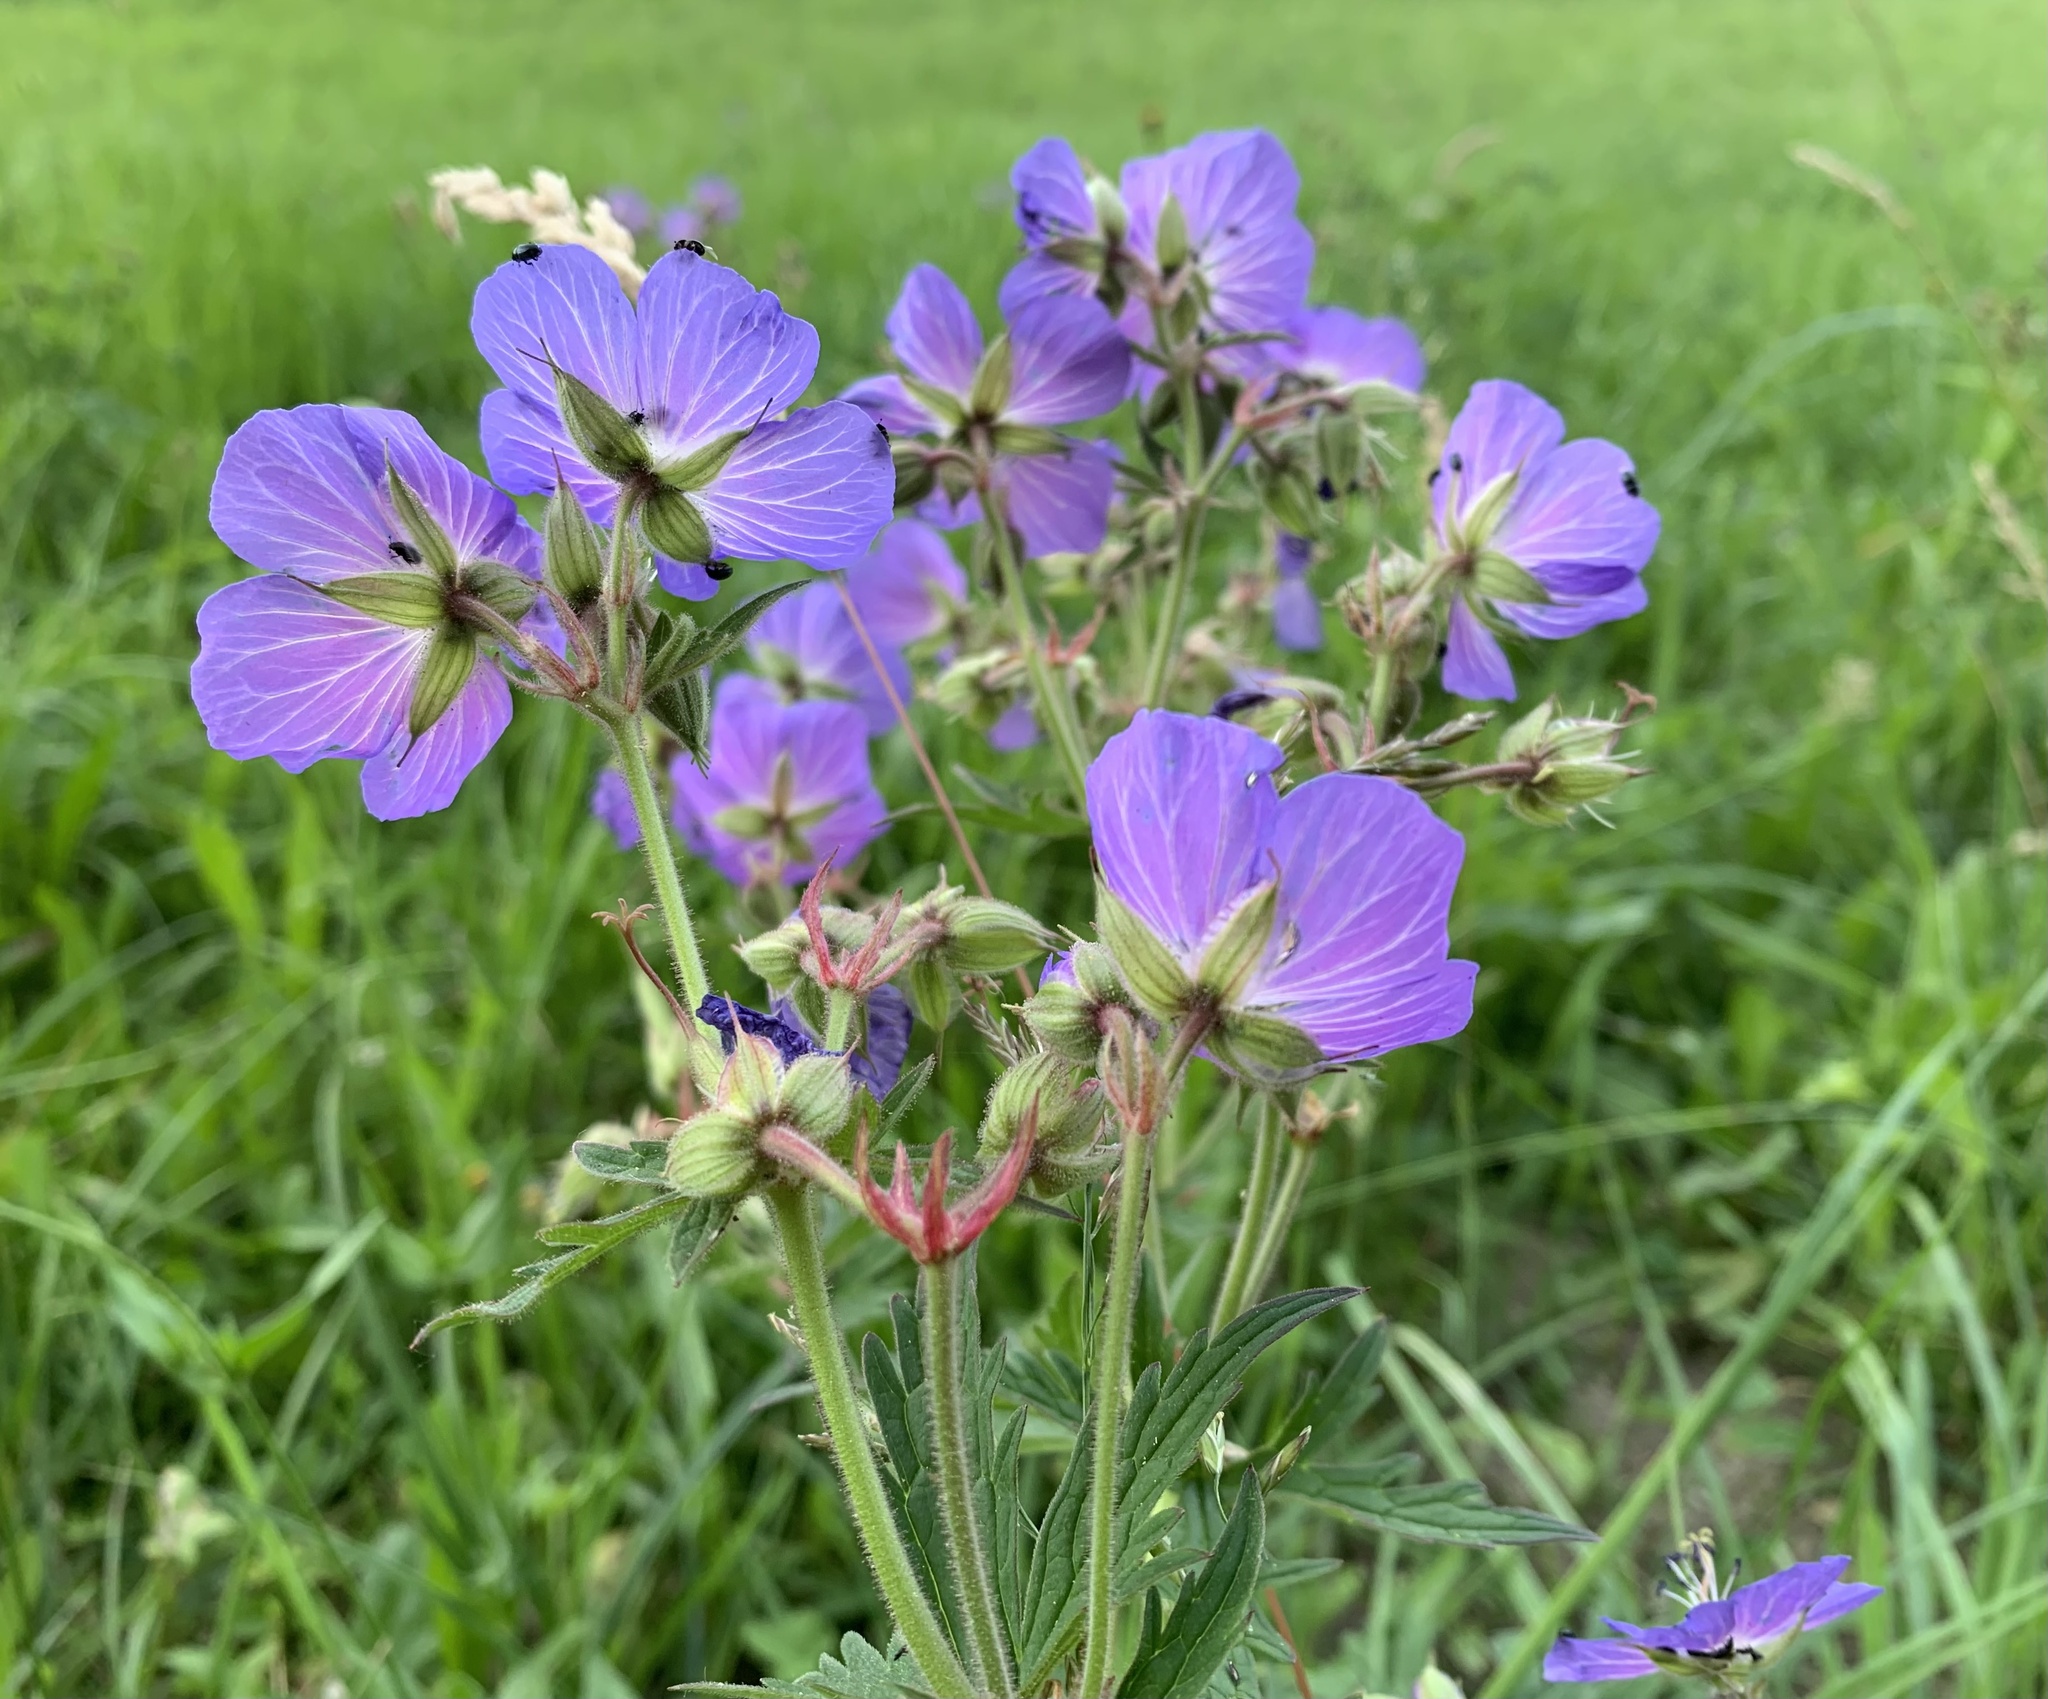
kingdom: Plantae
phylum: Tracheophyta
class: Magnoliopsida
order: Geraniales
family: Geraniaceae
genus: Geranium
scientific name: Geranium pratense
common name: Meadow crane's-bill
